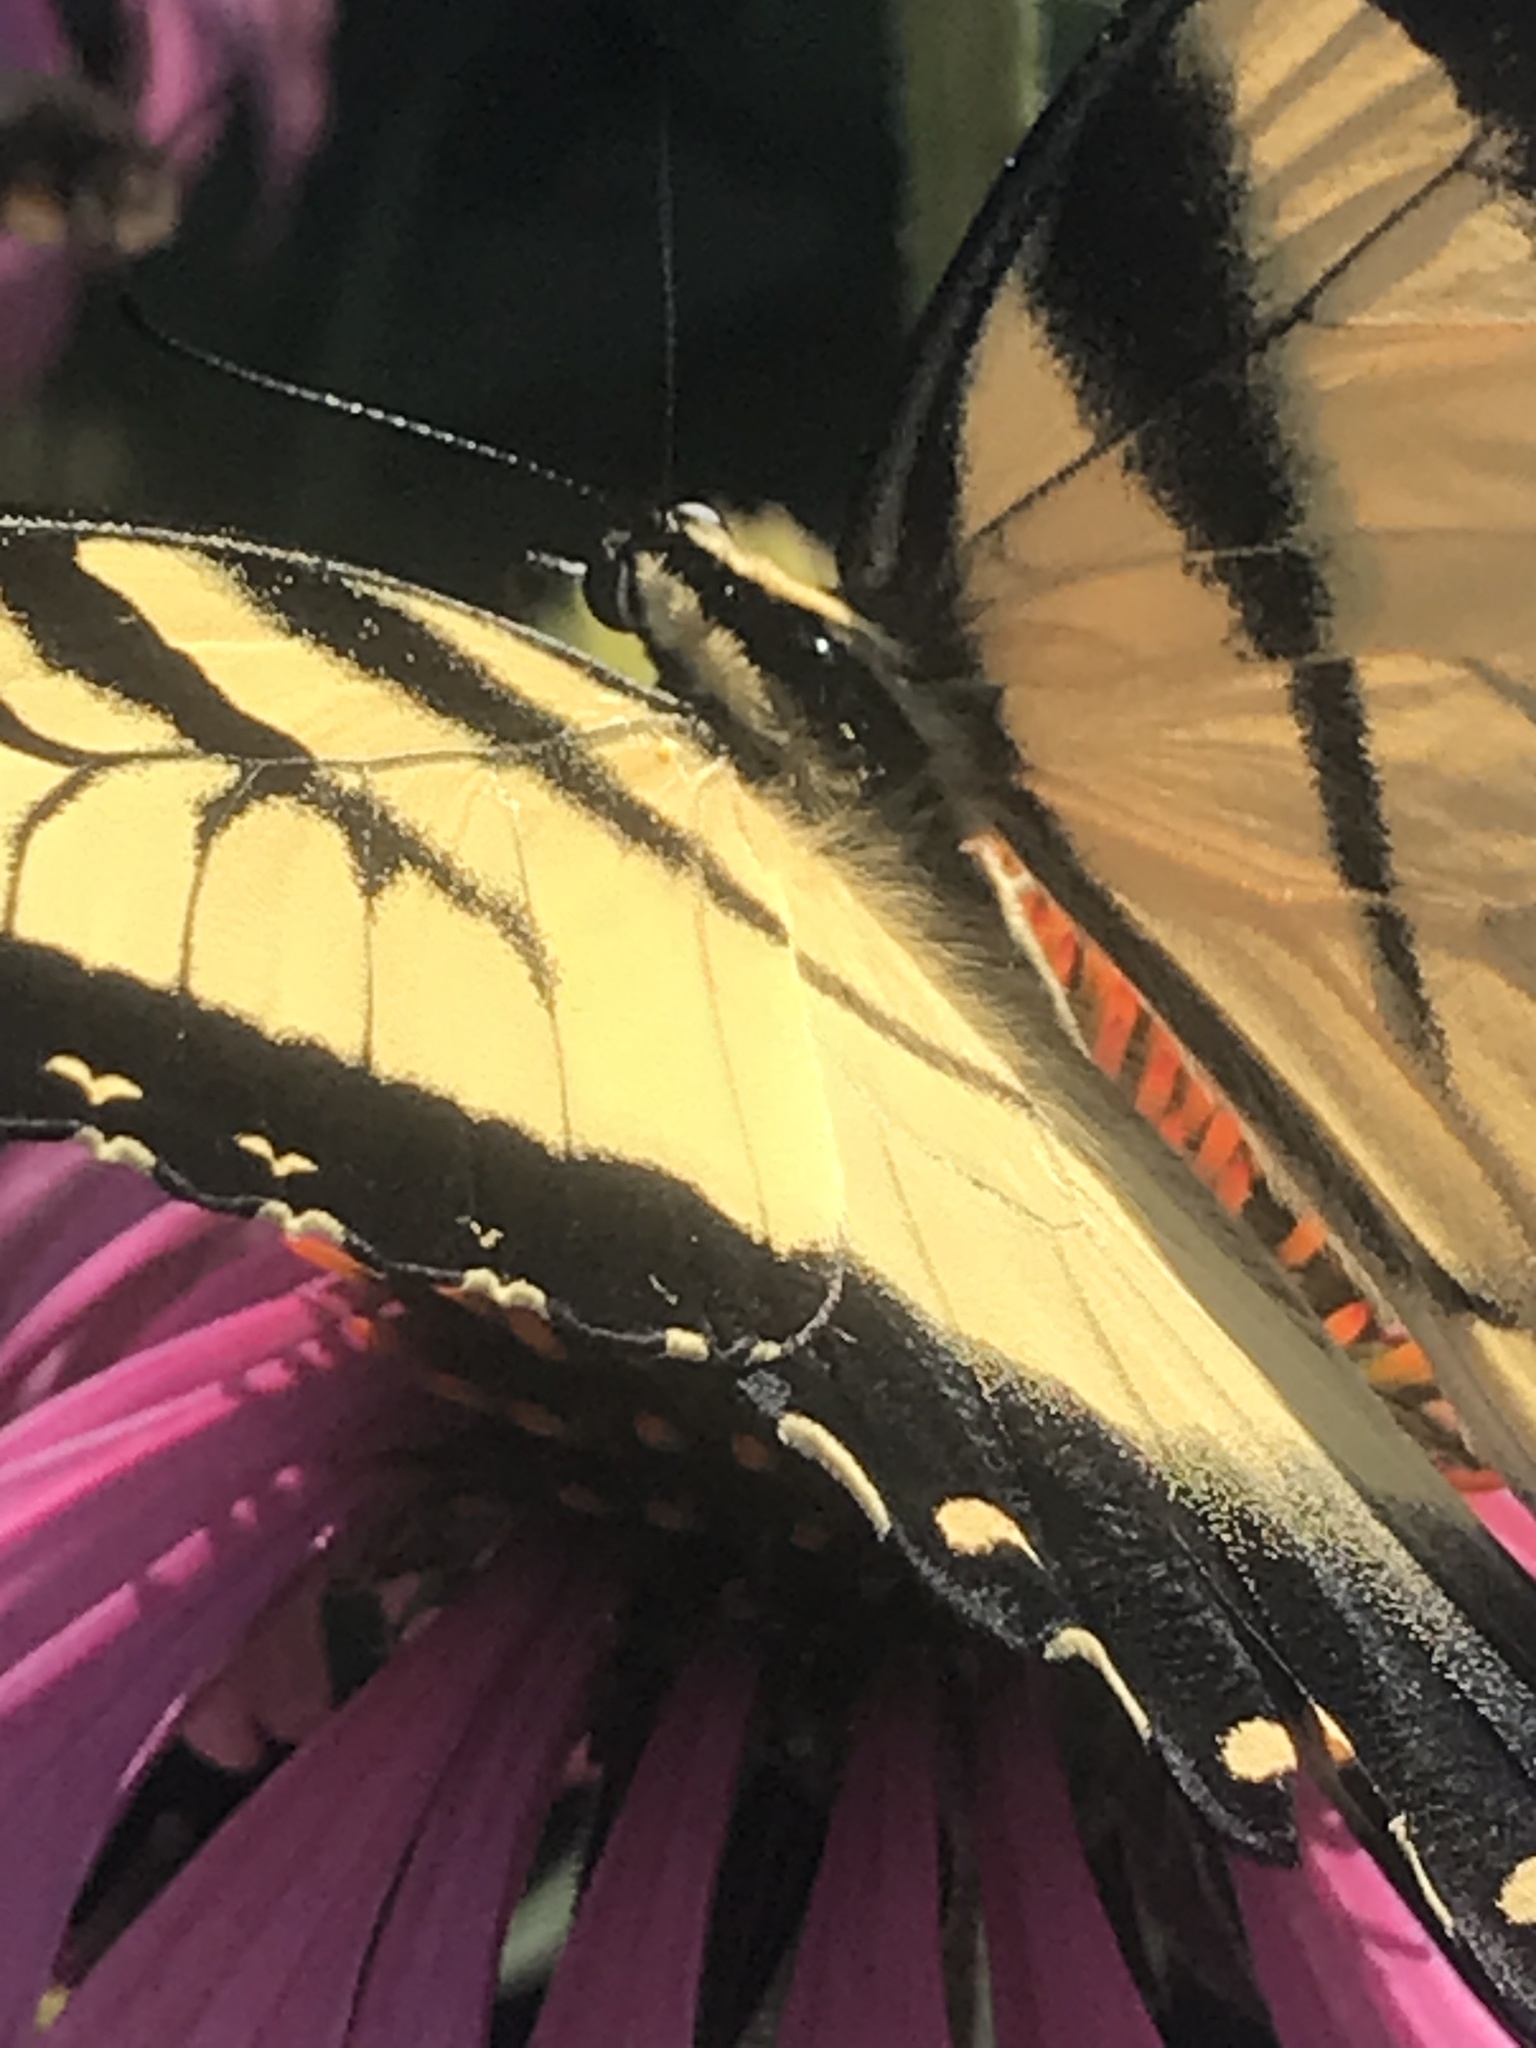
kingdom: Animalia
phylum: Arthropoda
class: Insecta
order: Lepidoptera
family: Papilionidae
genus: Papilio
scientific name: Papilio glaucus
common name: Tiger swallowtail
